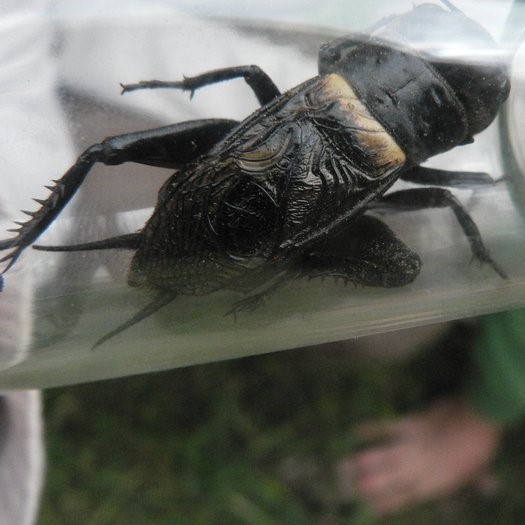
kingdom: Animalia
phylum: Arthropoda
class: Insecta
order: Orthoptera
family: Gryllidae
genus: Gryllus
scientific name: Gryllus campestris
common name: Field cricket
